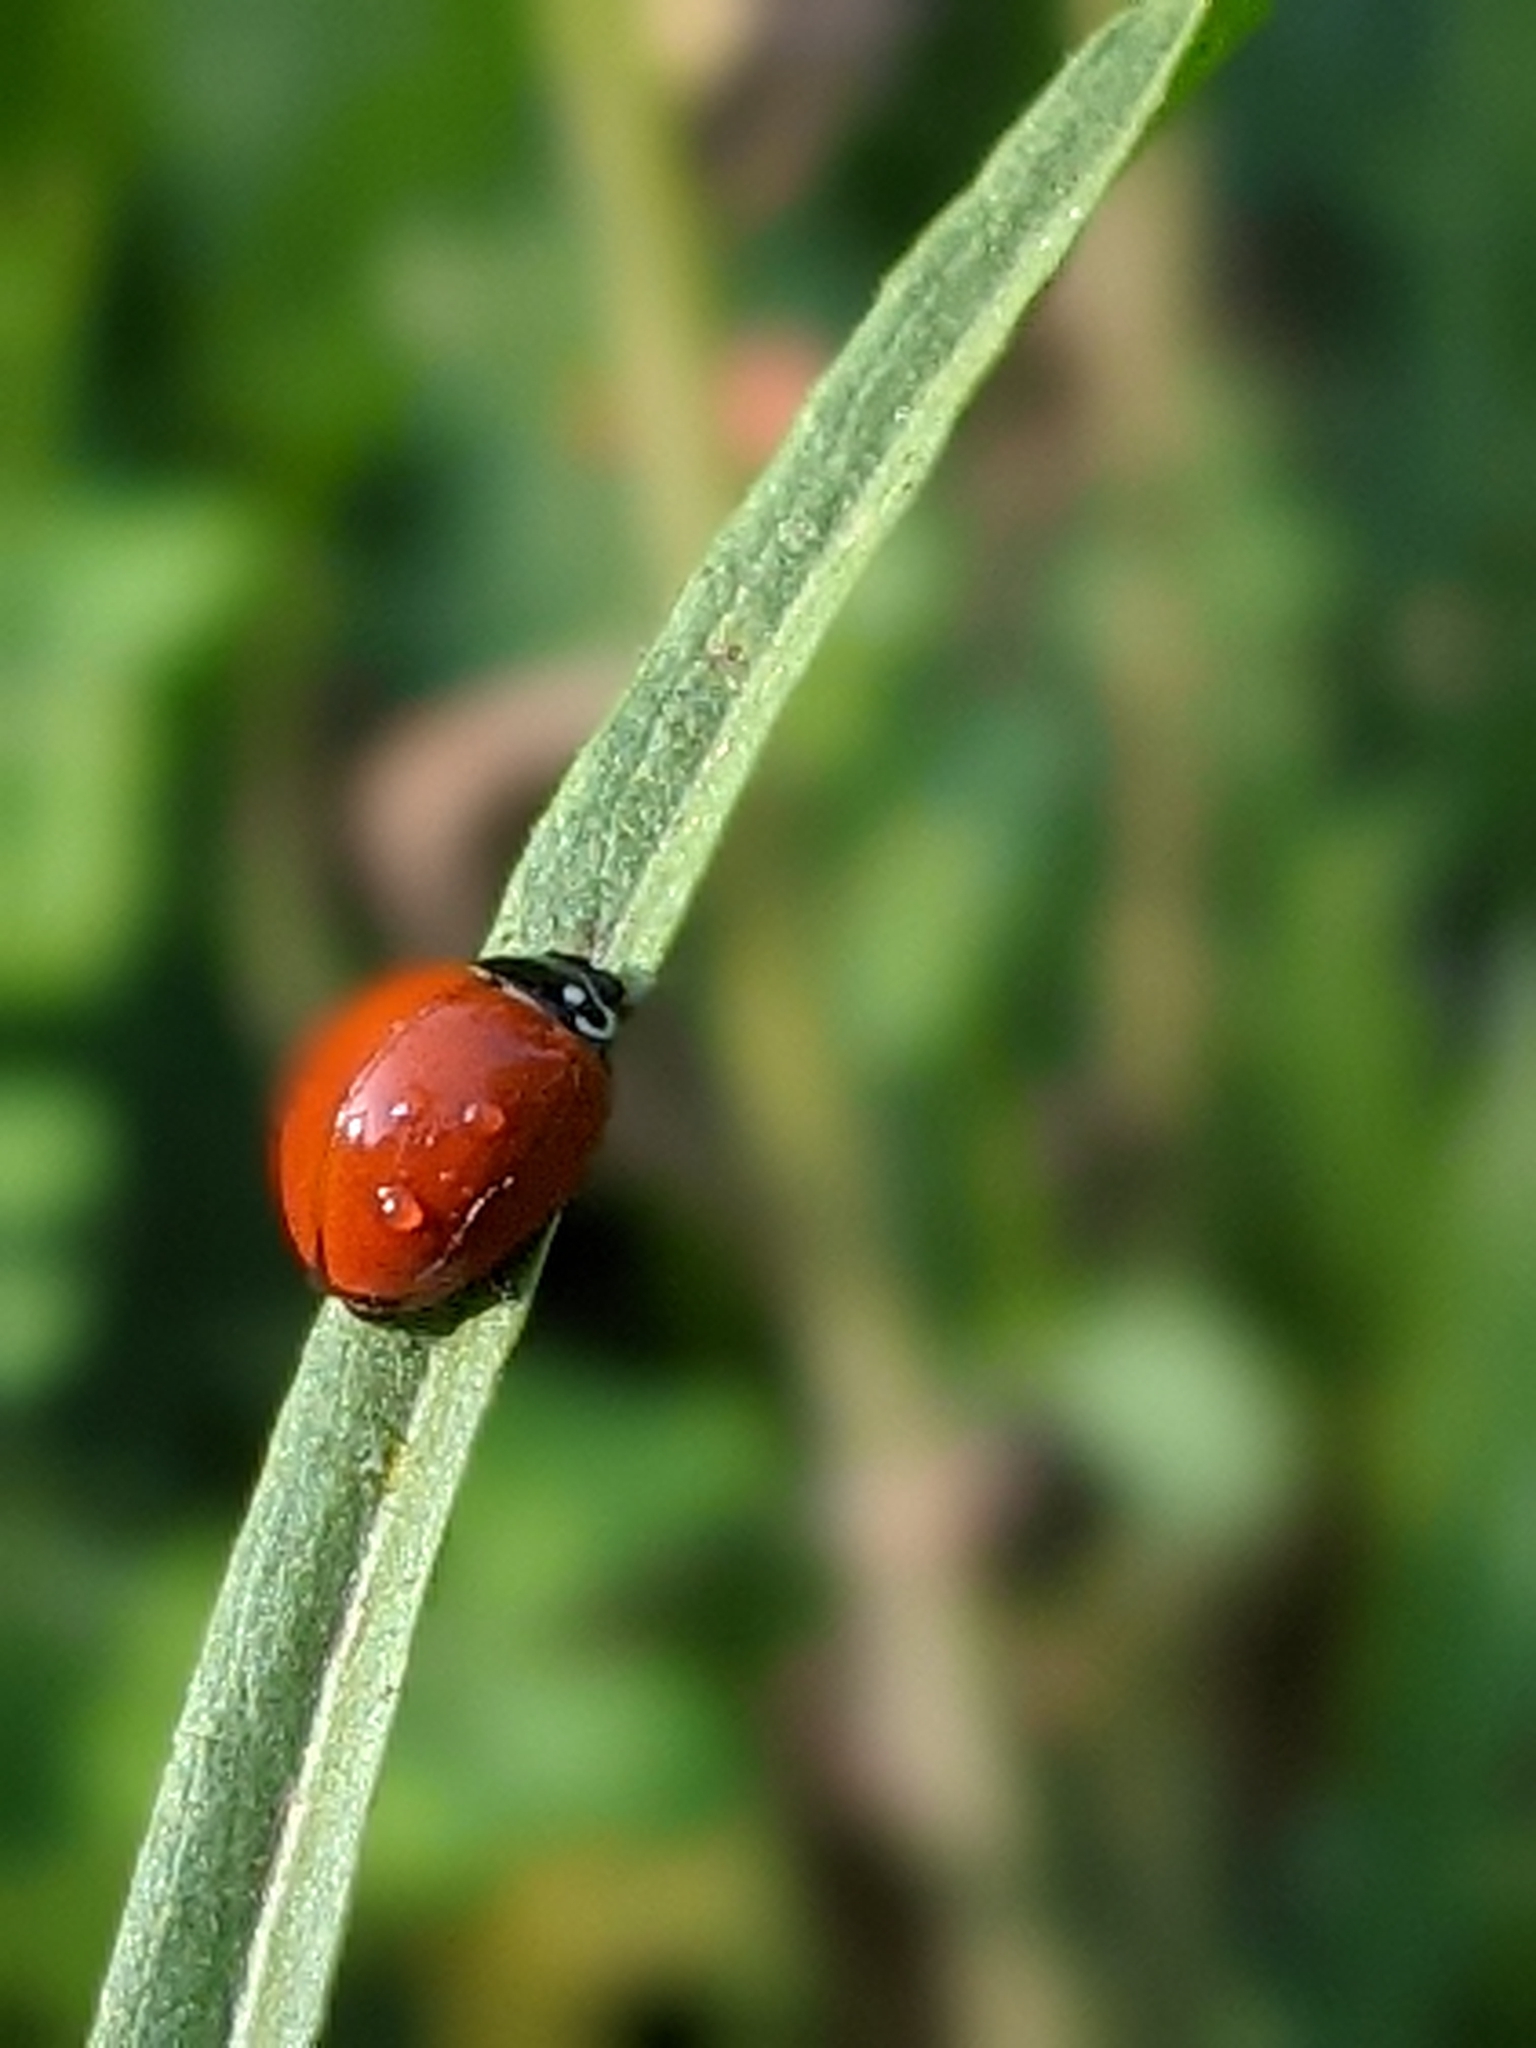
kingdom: Animalia
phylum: Arthropoda
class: Insecta
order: Coleoptera
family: Coccinellidae
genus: Cycloneda
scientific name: Cycloneda sanguinea
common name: Ladybird beetle
